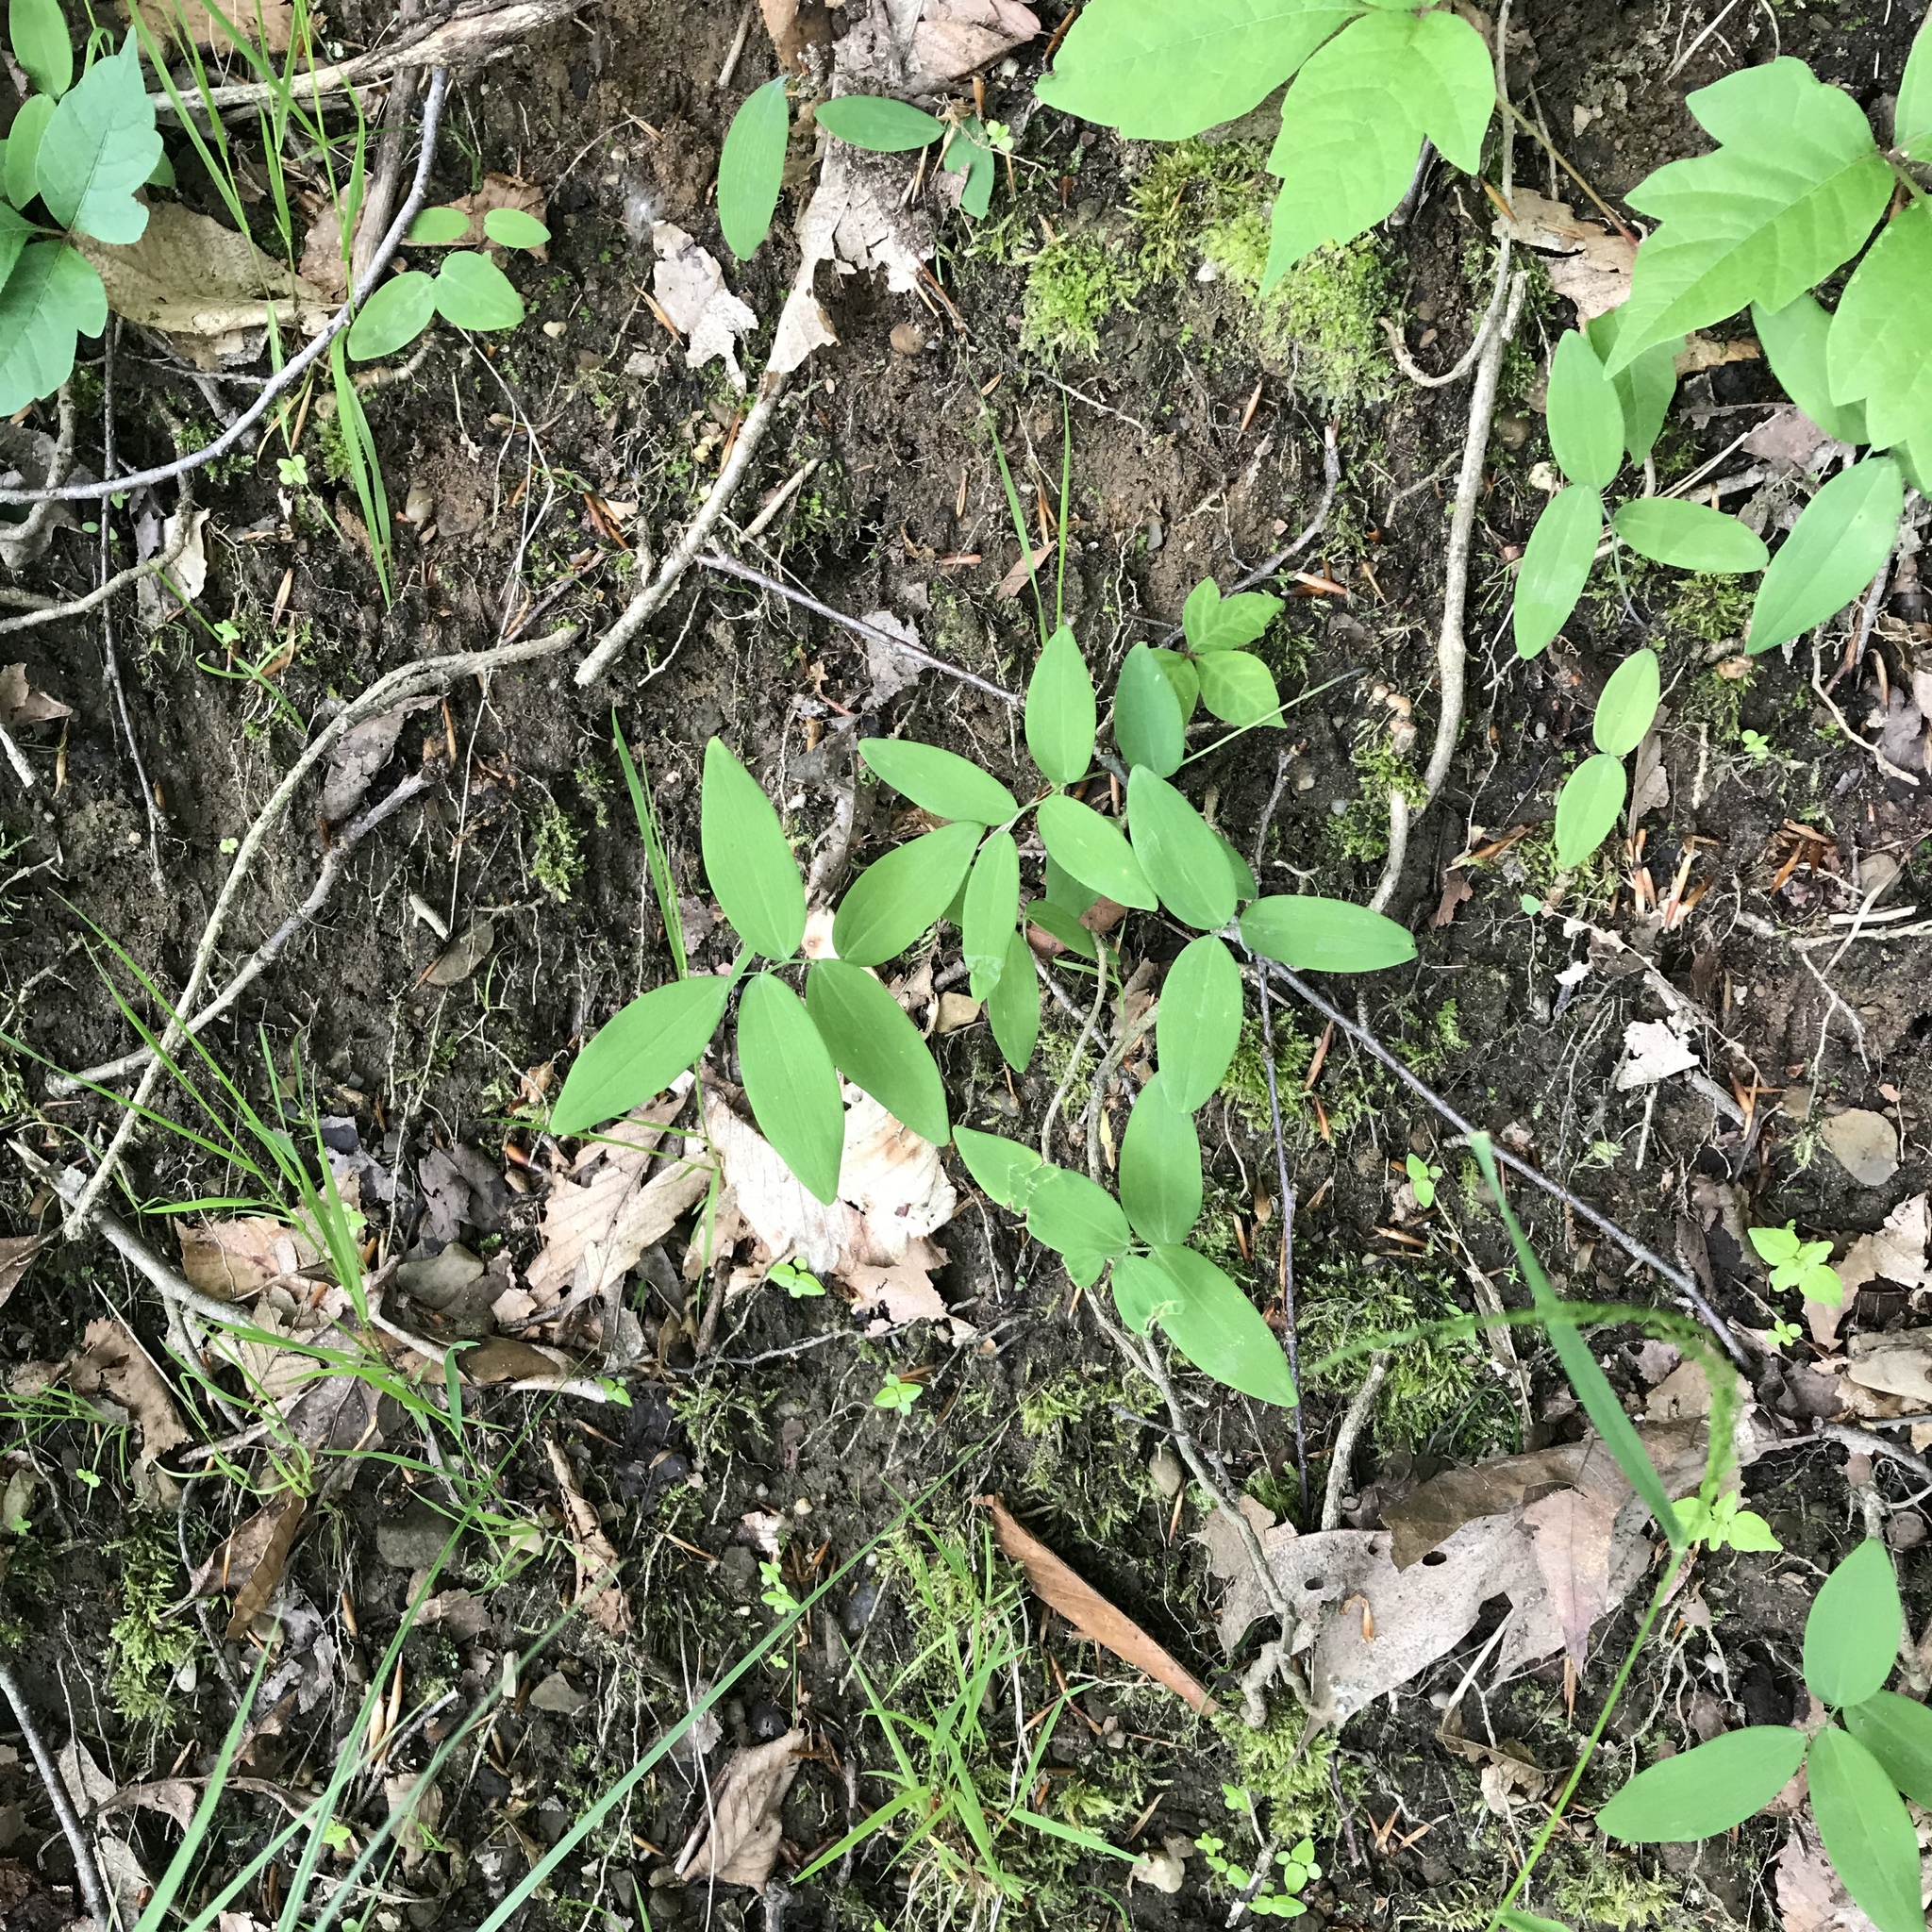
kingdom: Plantae
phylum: Tracheophyta
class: Liliopsida
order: Asparagales
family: Asparagaceae
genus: Polygonatum
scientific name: Polygonatum pubescens
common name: Downy solomon's seal
